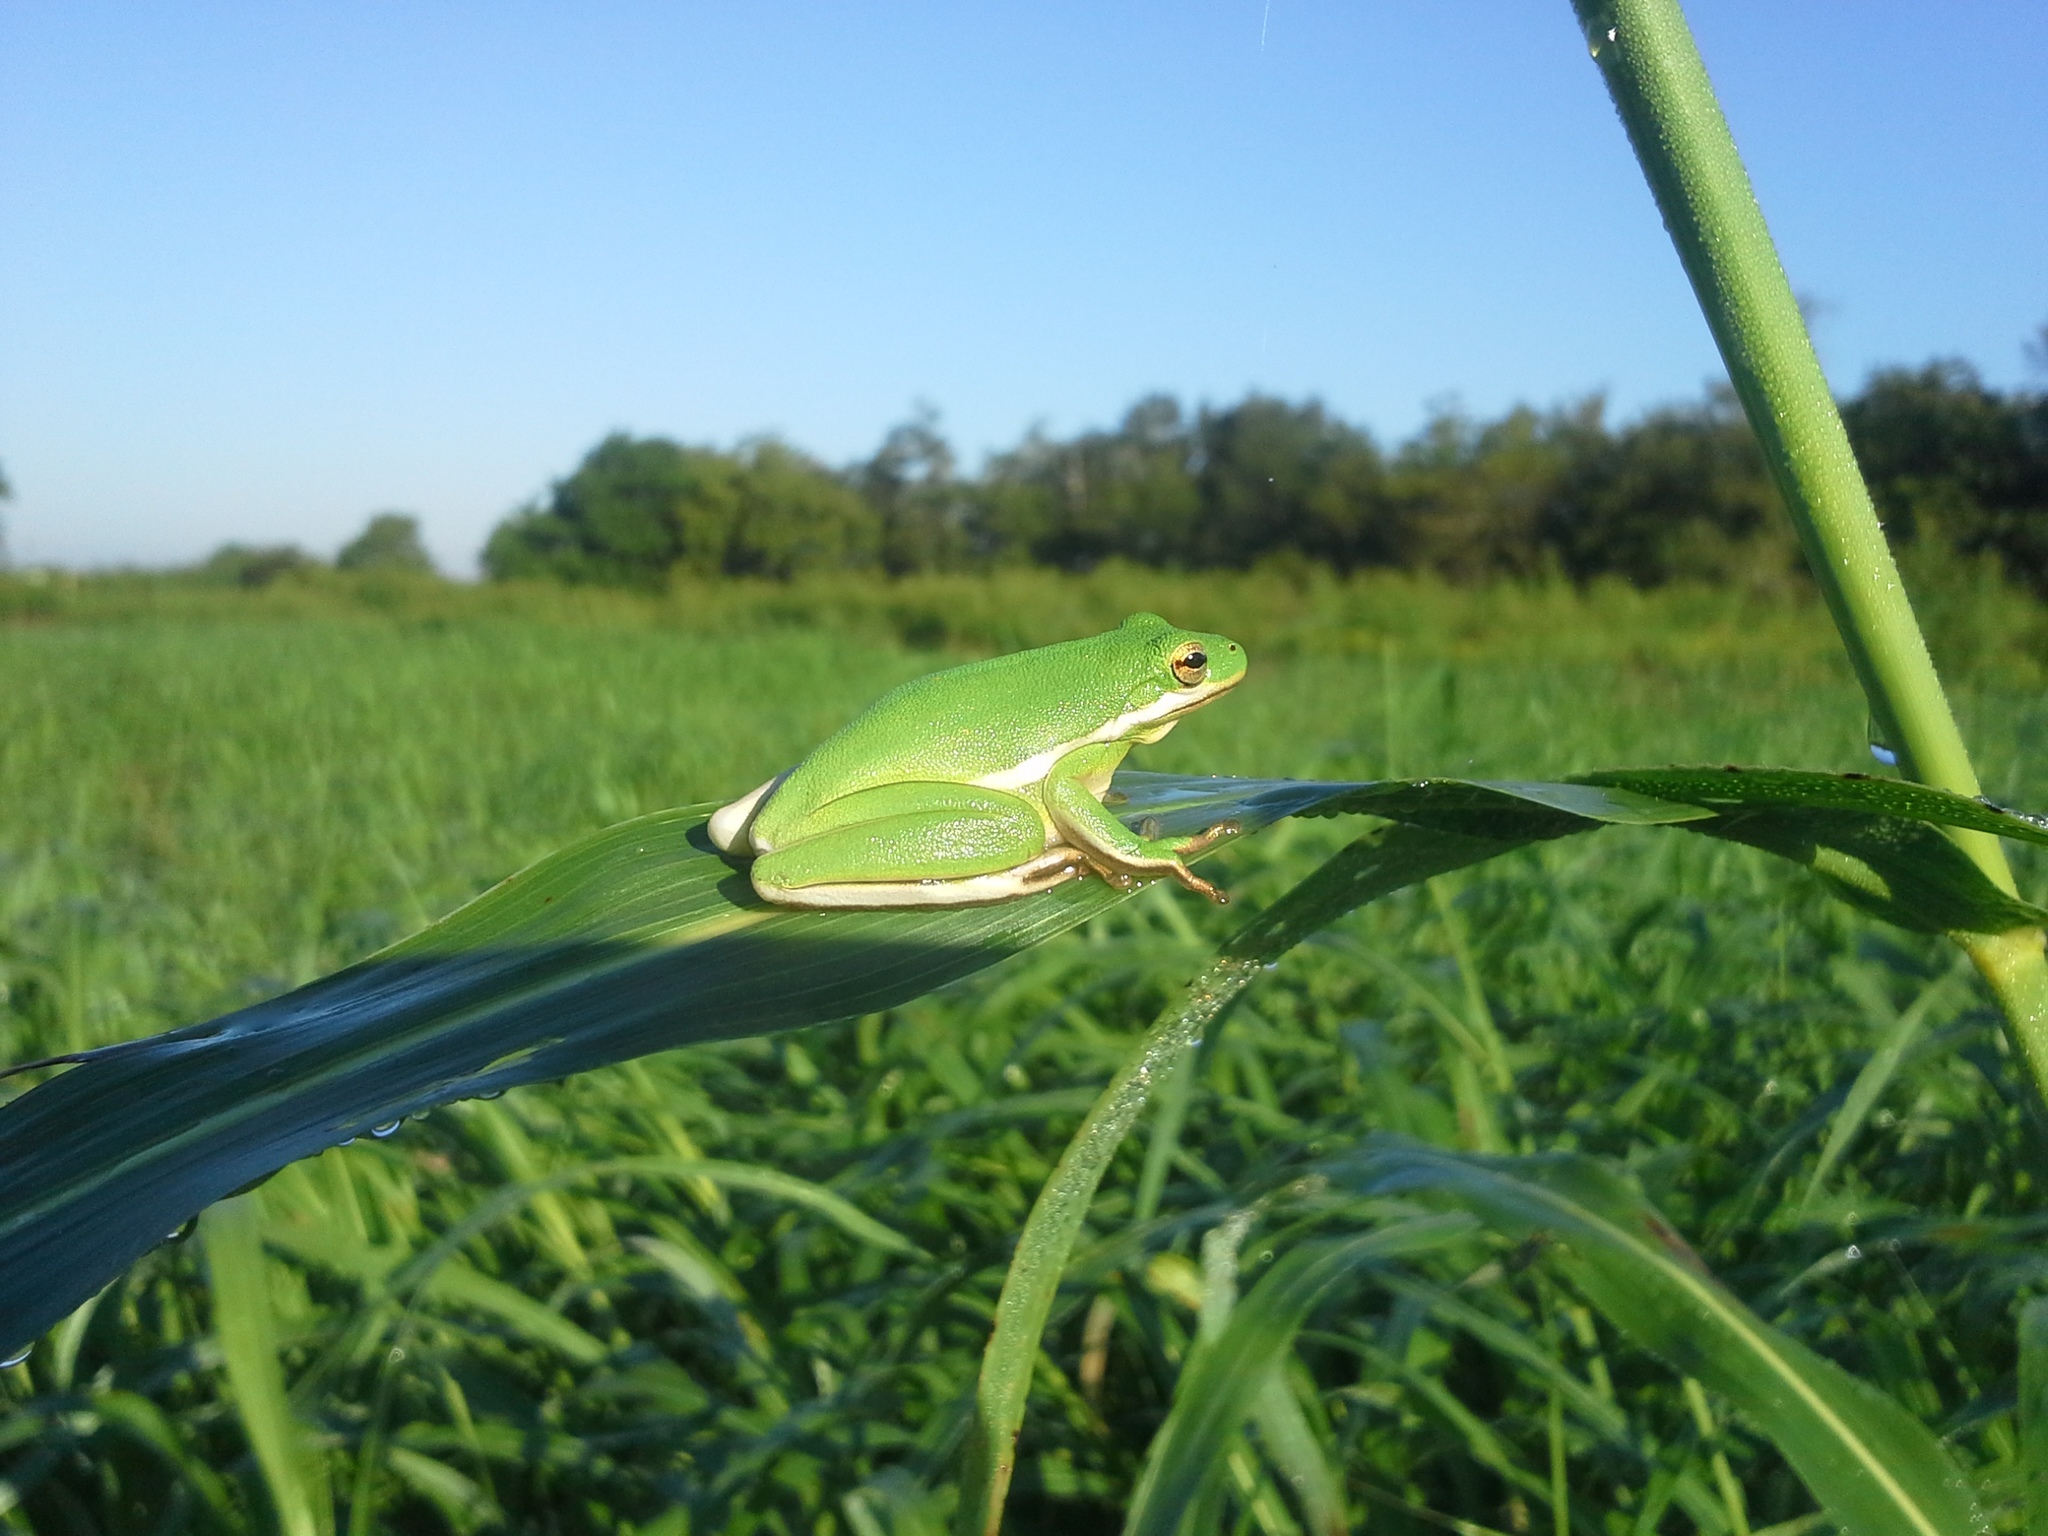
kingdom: Animalia
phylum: Chordata
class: Amphibia
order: Anura
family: Hylidae
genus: Dryophytes
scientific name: Dryophytes cinereus
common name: Green treefrog
